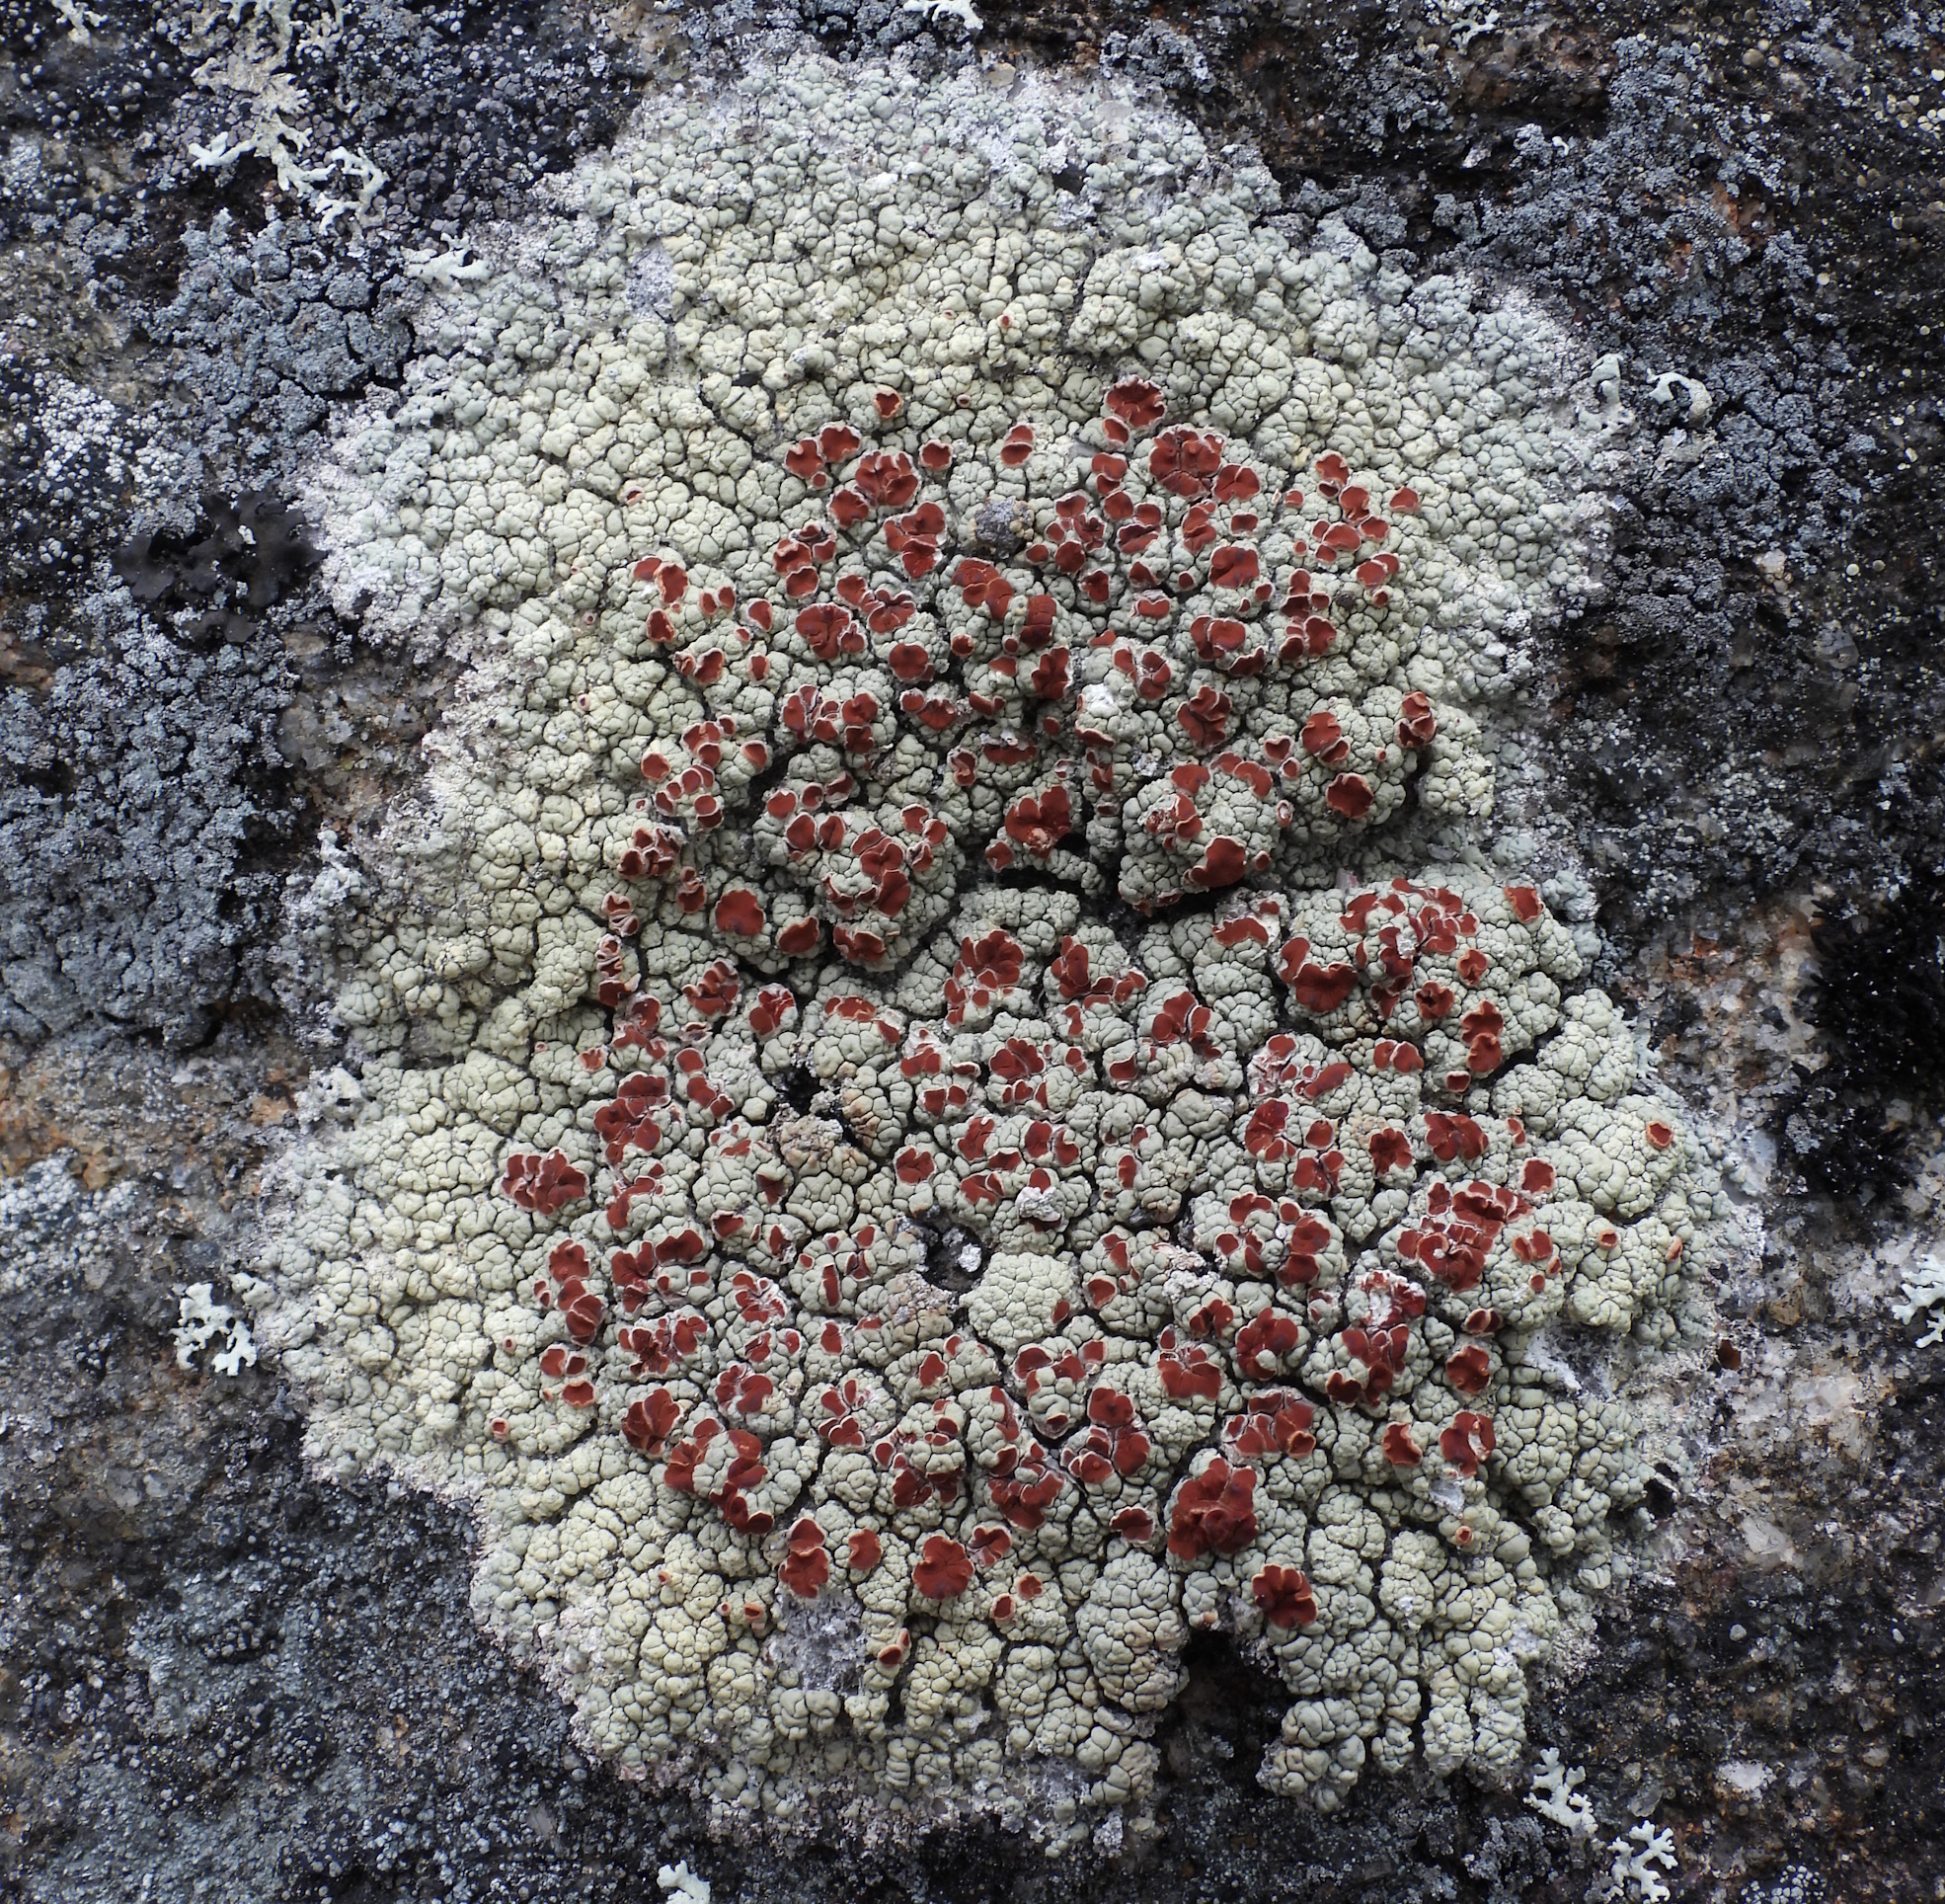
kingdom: Fungi
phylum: Ascomycota
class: Lecanoromycetes
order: Umbilicariales
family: Ophioparmaceae
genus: Ophioparma
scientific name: Ophioparma ventosa
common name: Blood-spot
